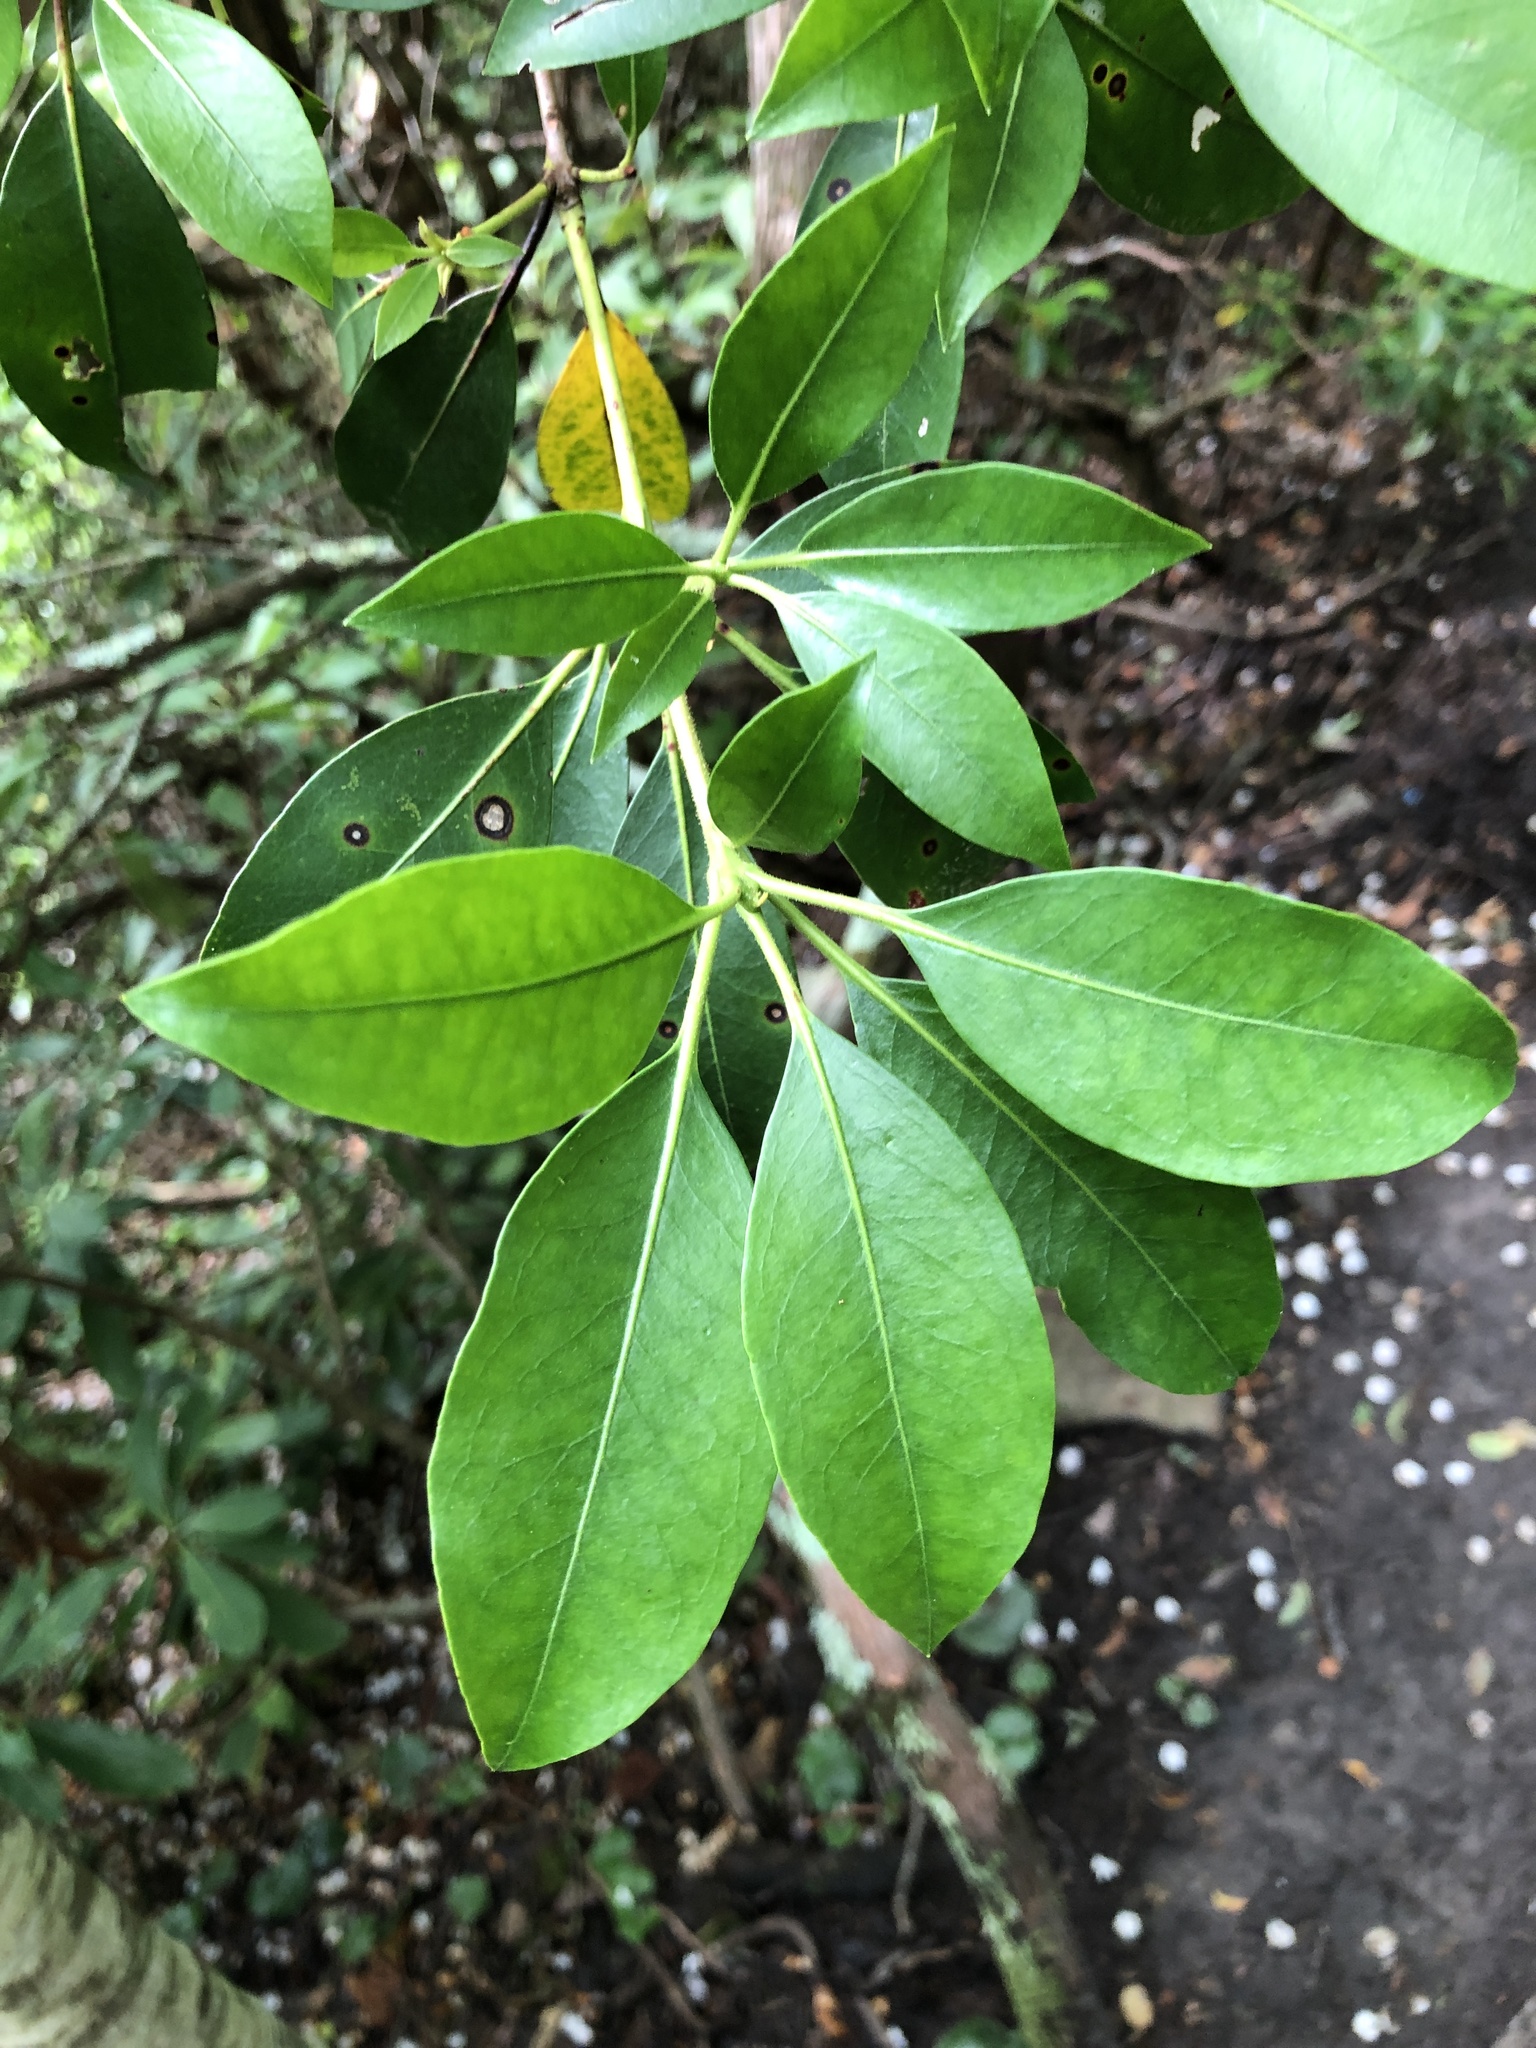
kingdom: Plantae
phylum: Tracheophyta
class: Magnoliopsida
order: Ericales
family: Ericaceae
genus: Kalmia
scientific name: Kalmia latifolia
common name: Mountain-laurel
